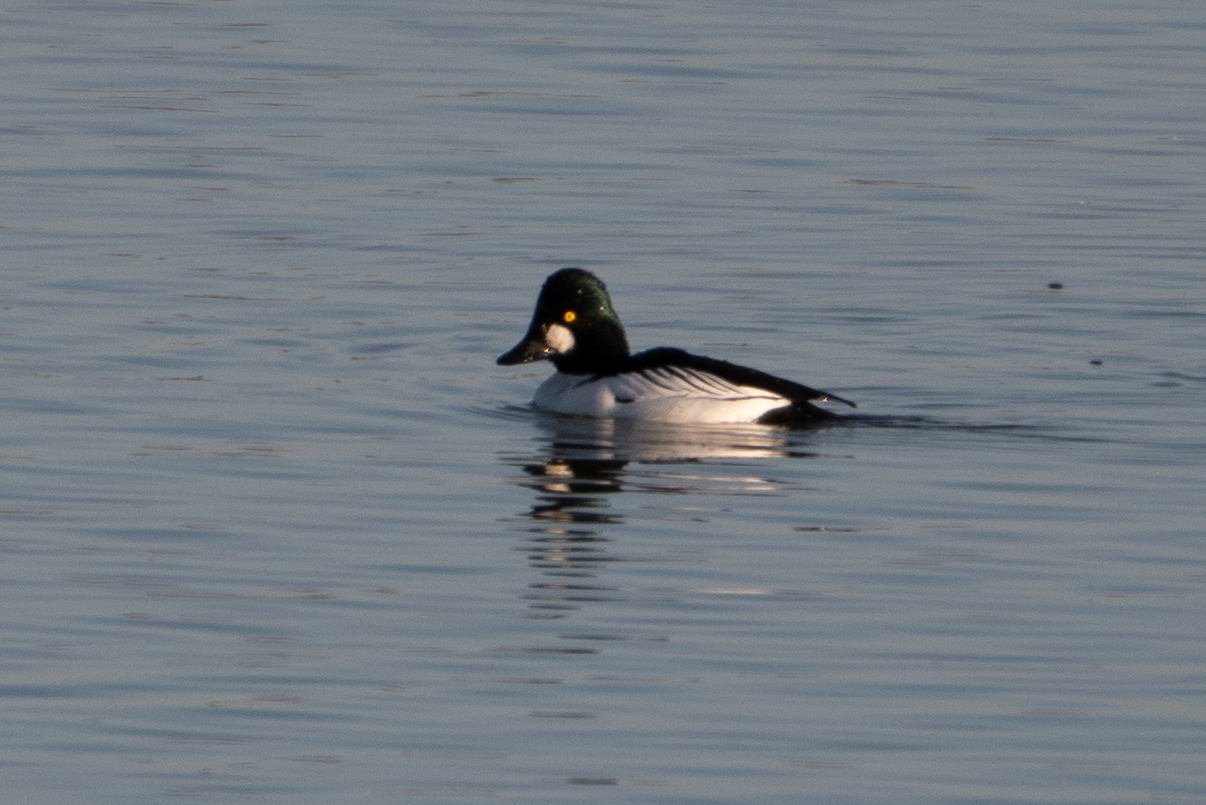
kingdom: Animalia
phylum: Chordata
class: Aves
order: Anseriformes
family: Anatidae
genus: Bucephala
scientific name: Bucephala clangula
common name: Common goldeneye
